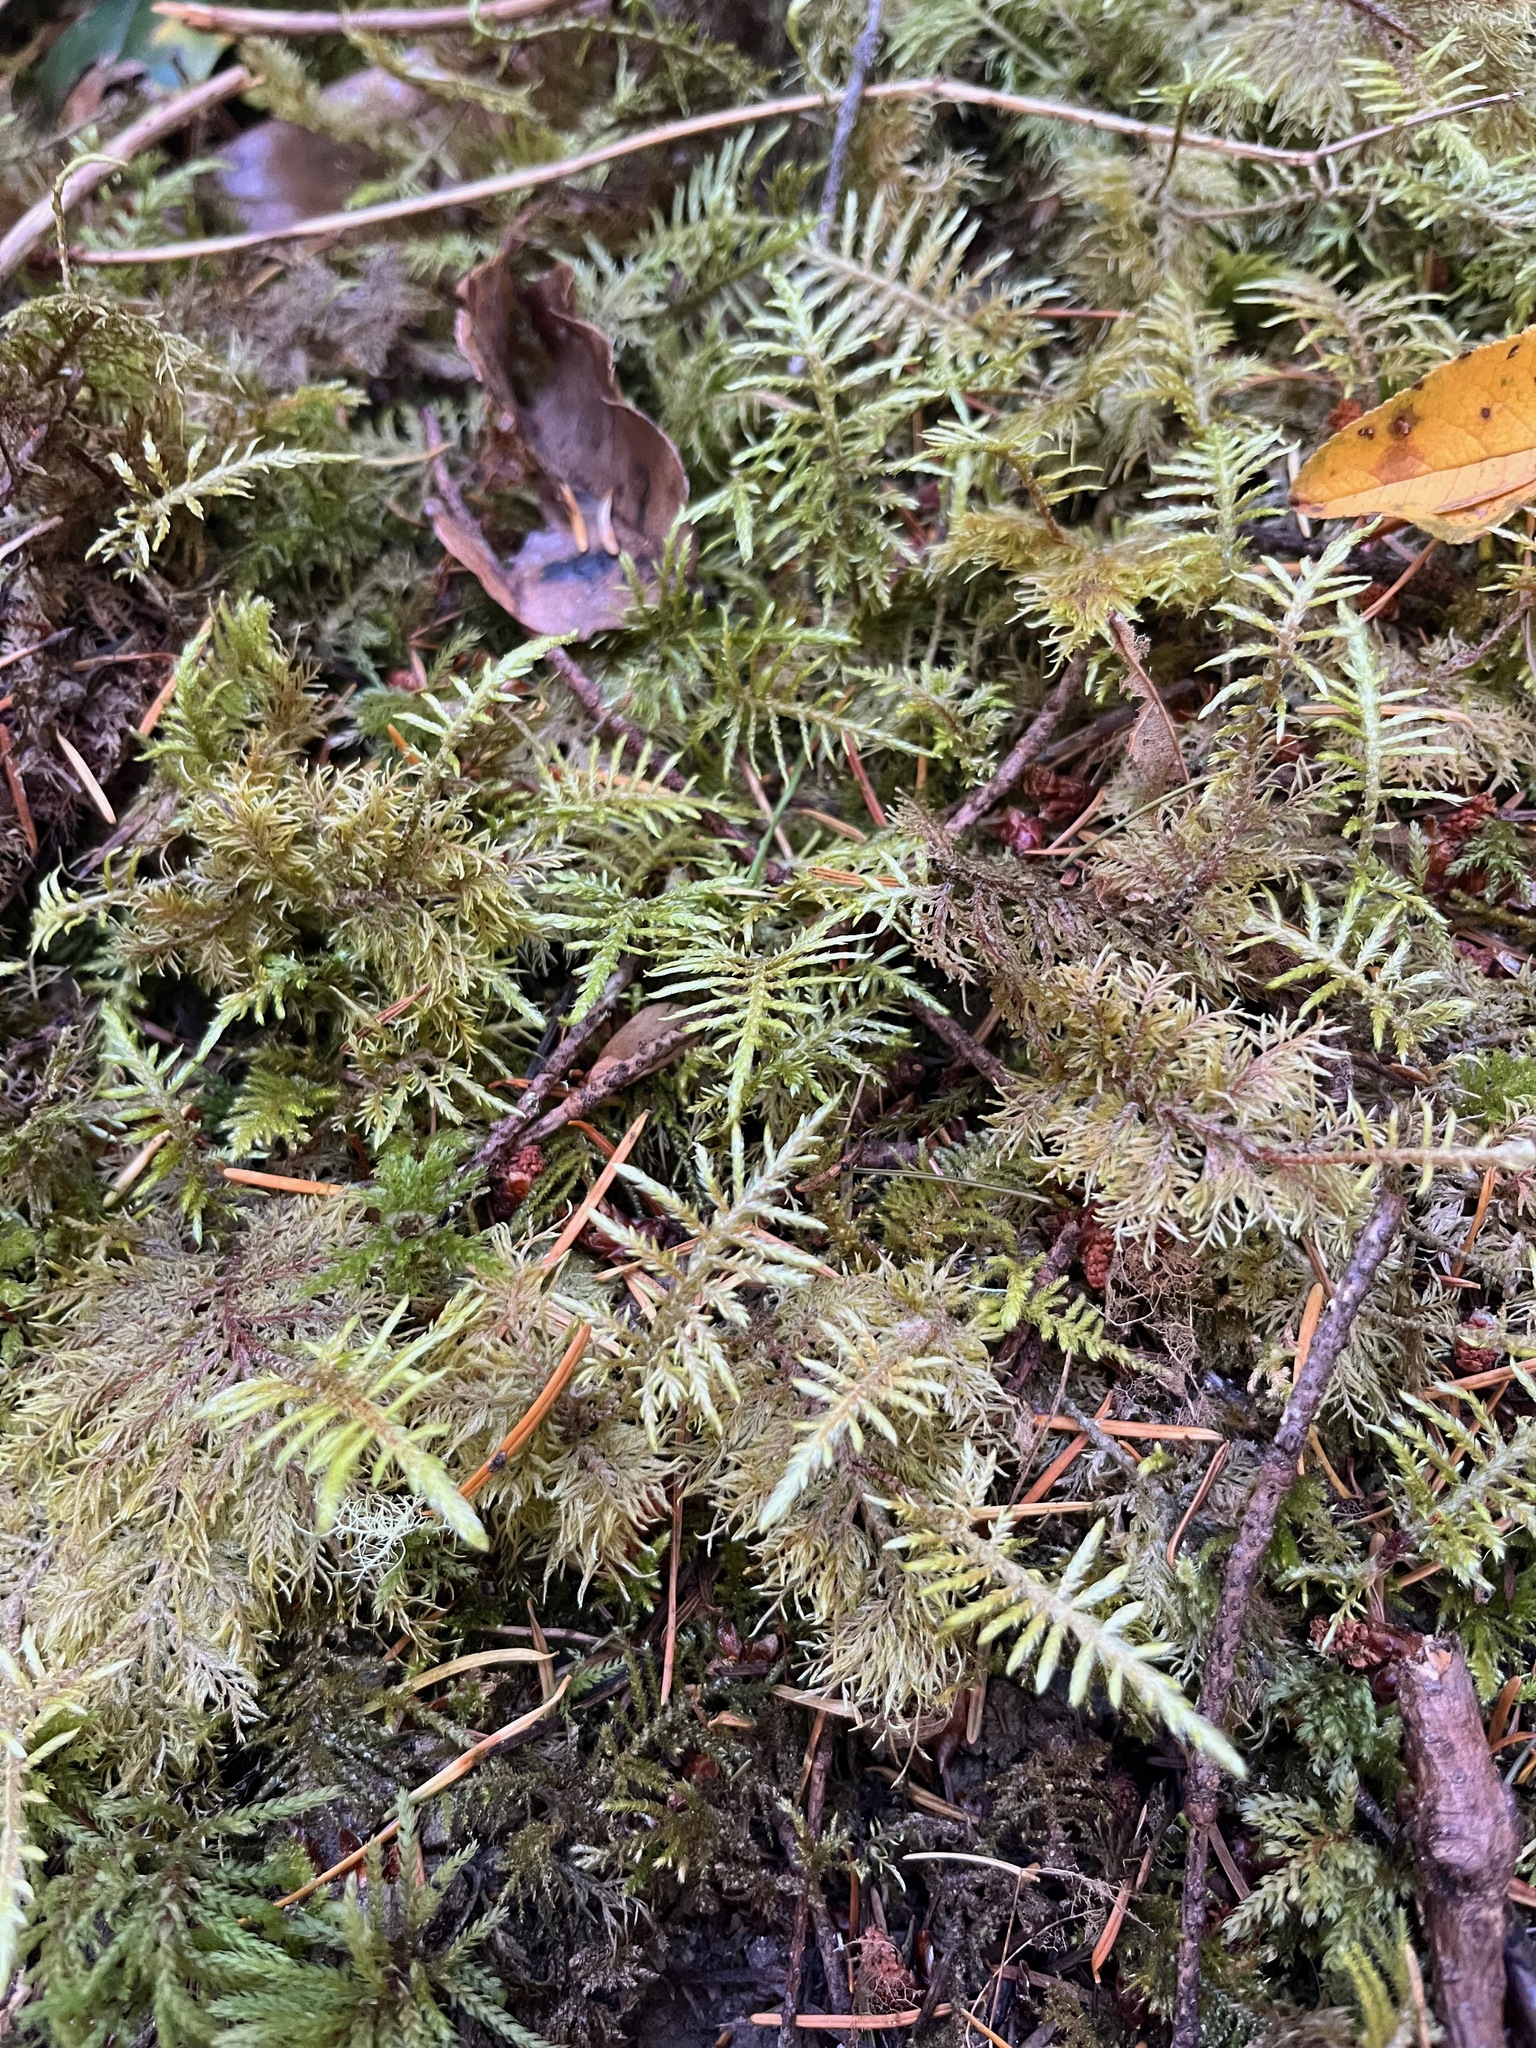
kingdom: Plantae
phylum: Bryophyta
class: Bryopsida
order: Hypnales
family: Hylocomiaceae
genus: Hylocomium
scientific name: Hylocomium splendens
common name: Stairstep moss
